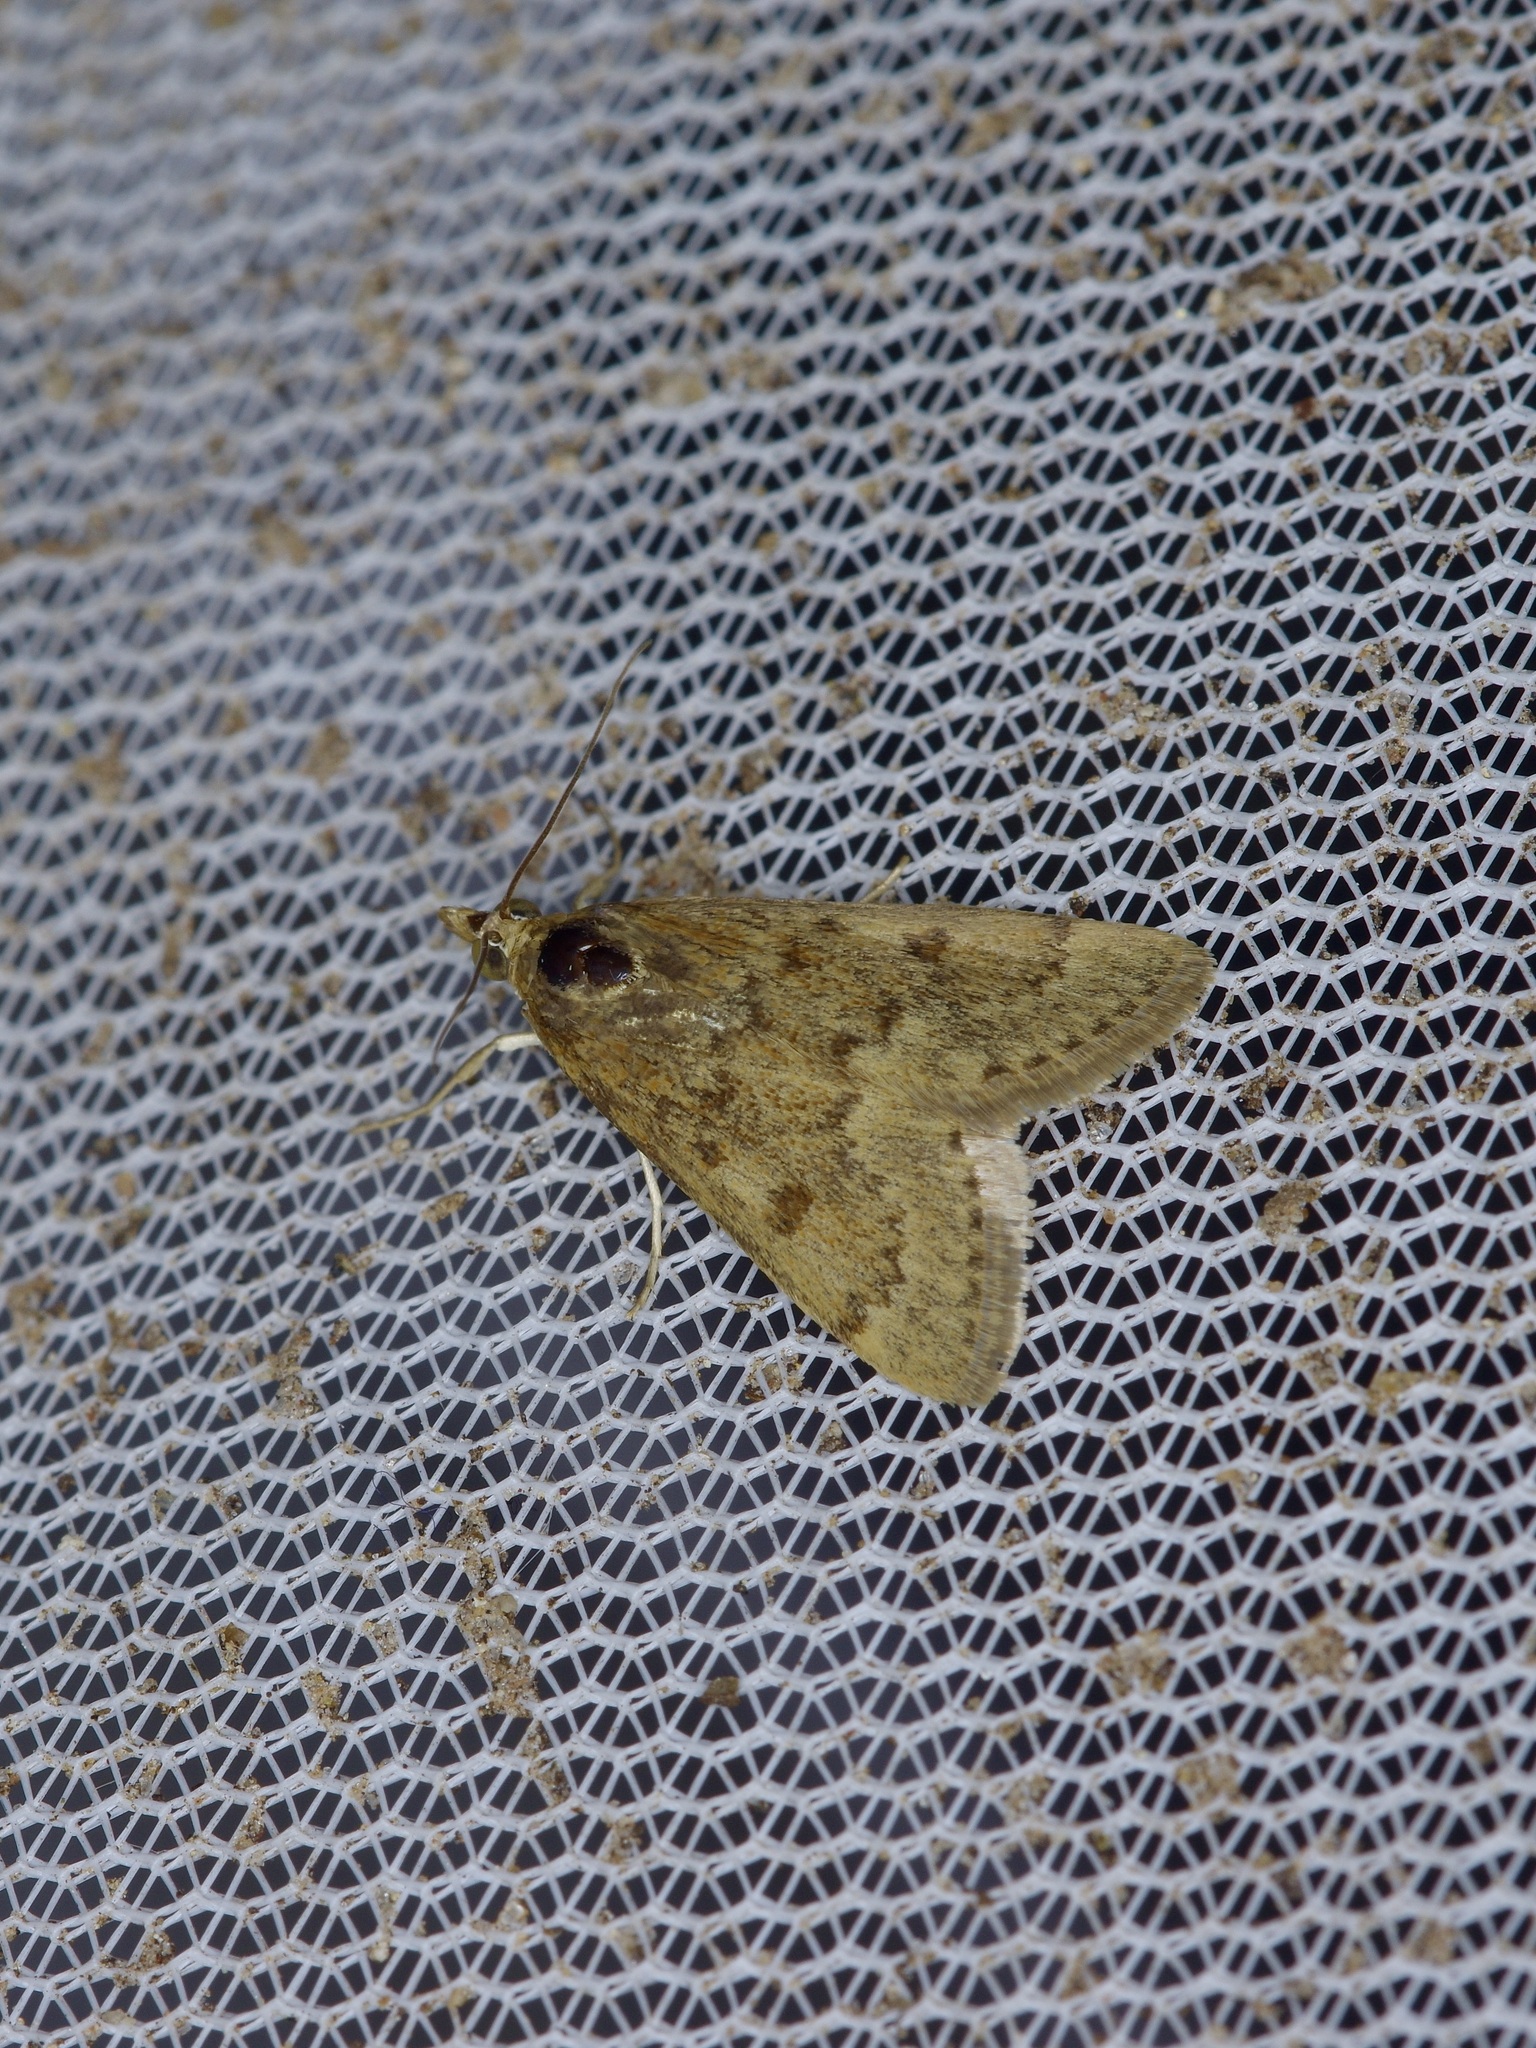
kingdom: Animalia
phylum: Arthropoda
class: Insecta
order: Lepidoptera
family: Crambidae
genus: Achyra
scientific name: Achyra rantalis
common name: Garden webworm
